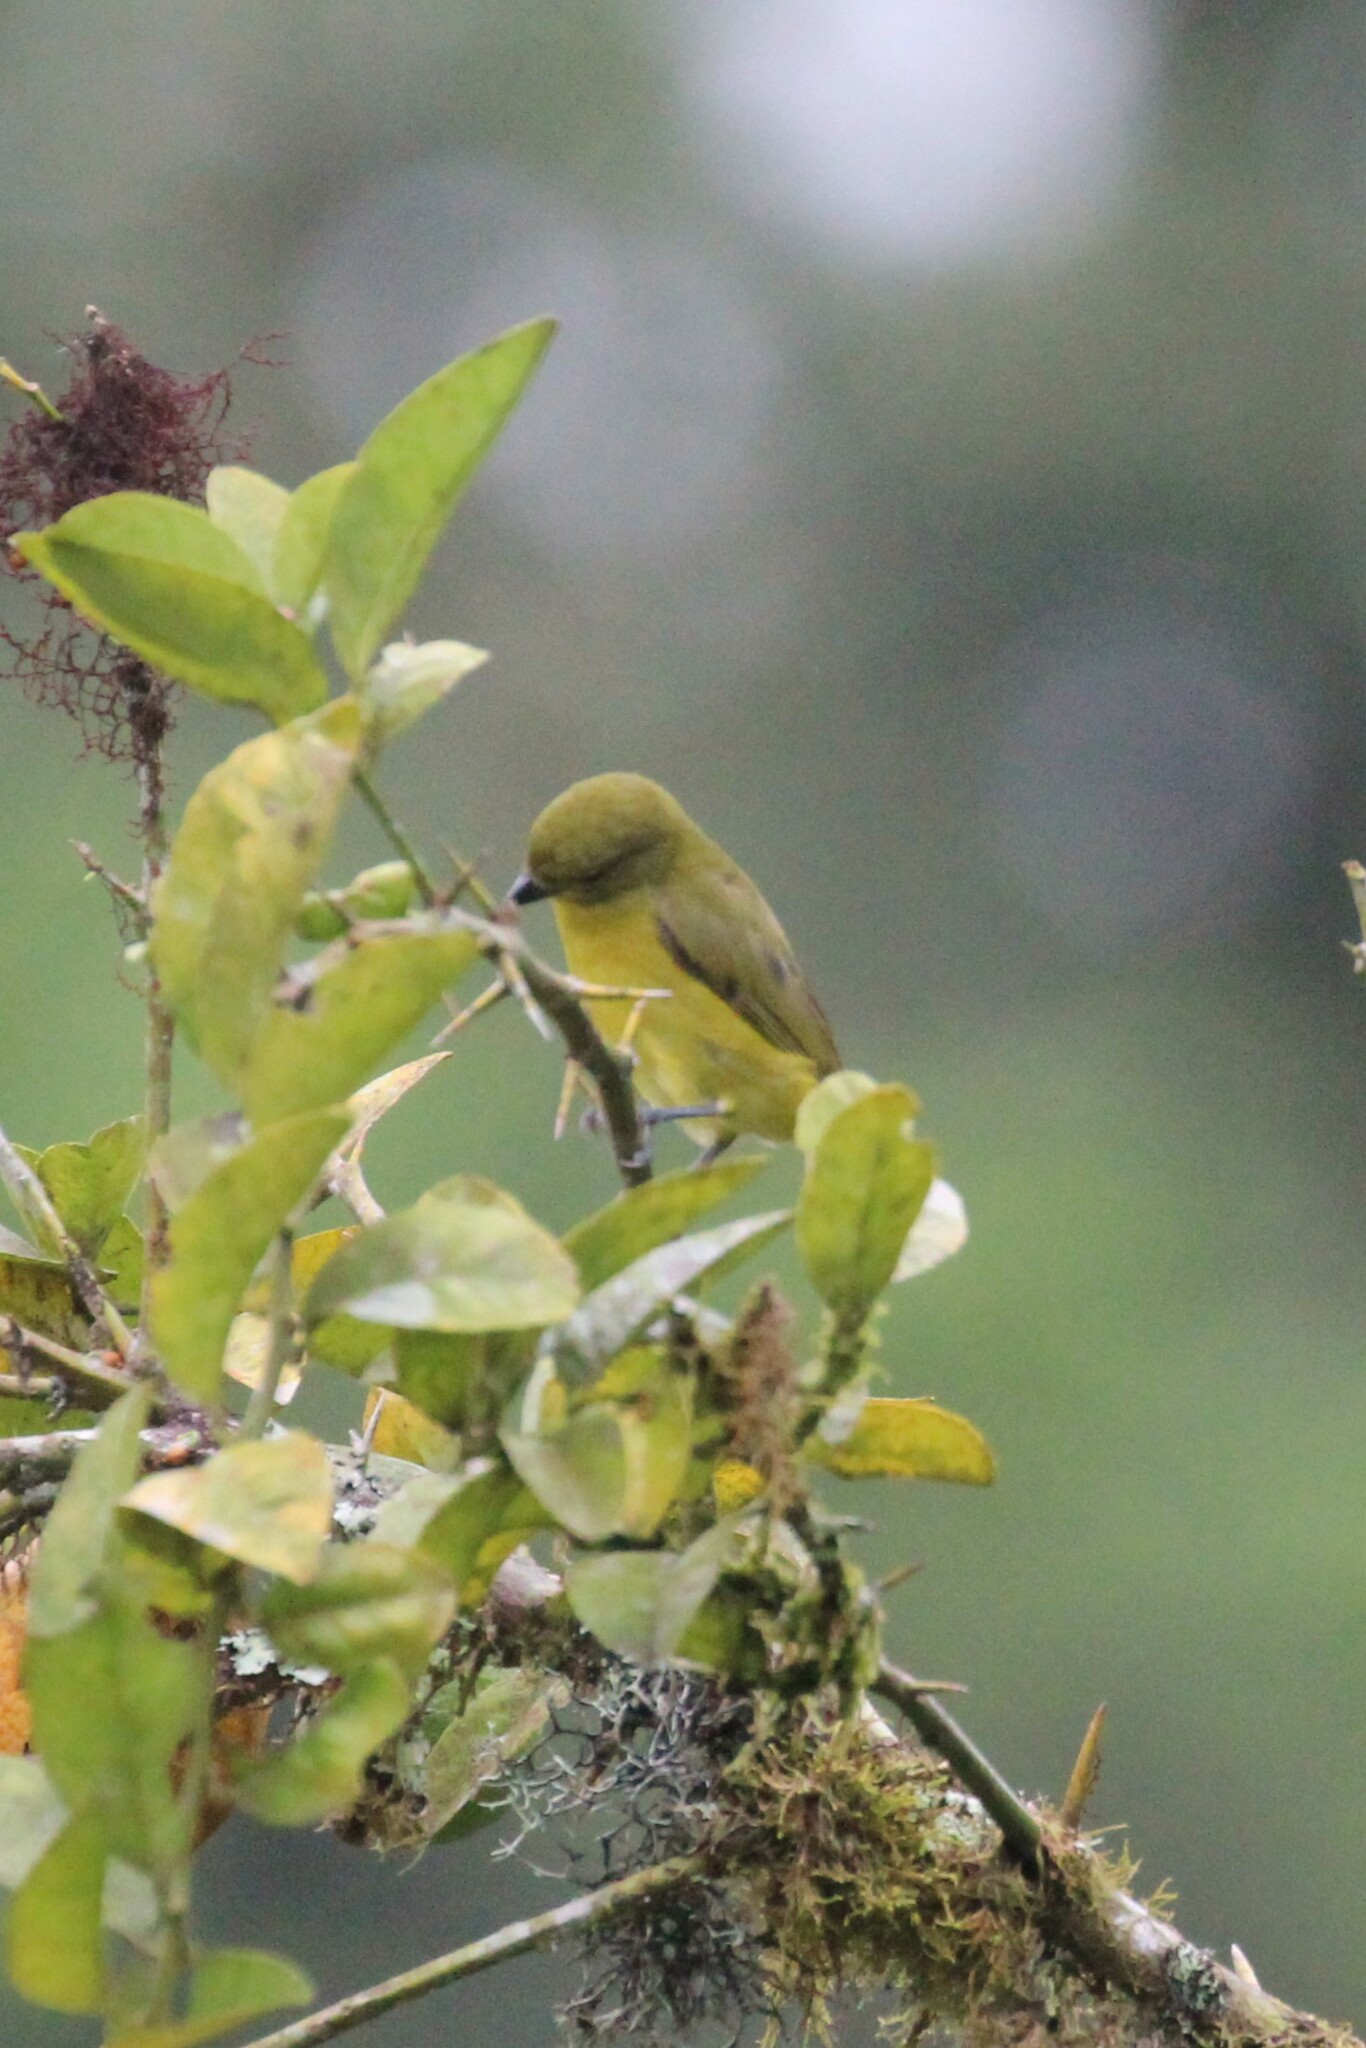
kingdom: Animalia
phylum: Chordata
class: Aves
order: Passeriformes
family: Fringillidae
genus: Euphonia
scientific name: Euphonia laniirostris
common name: Thick-billed euphonia
